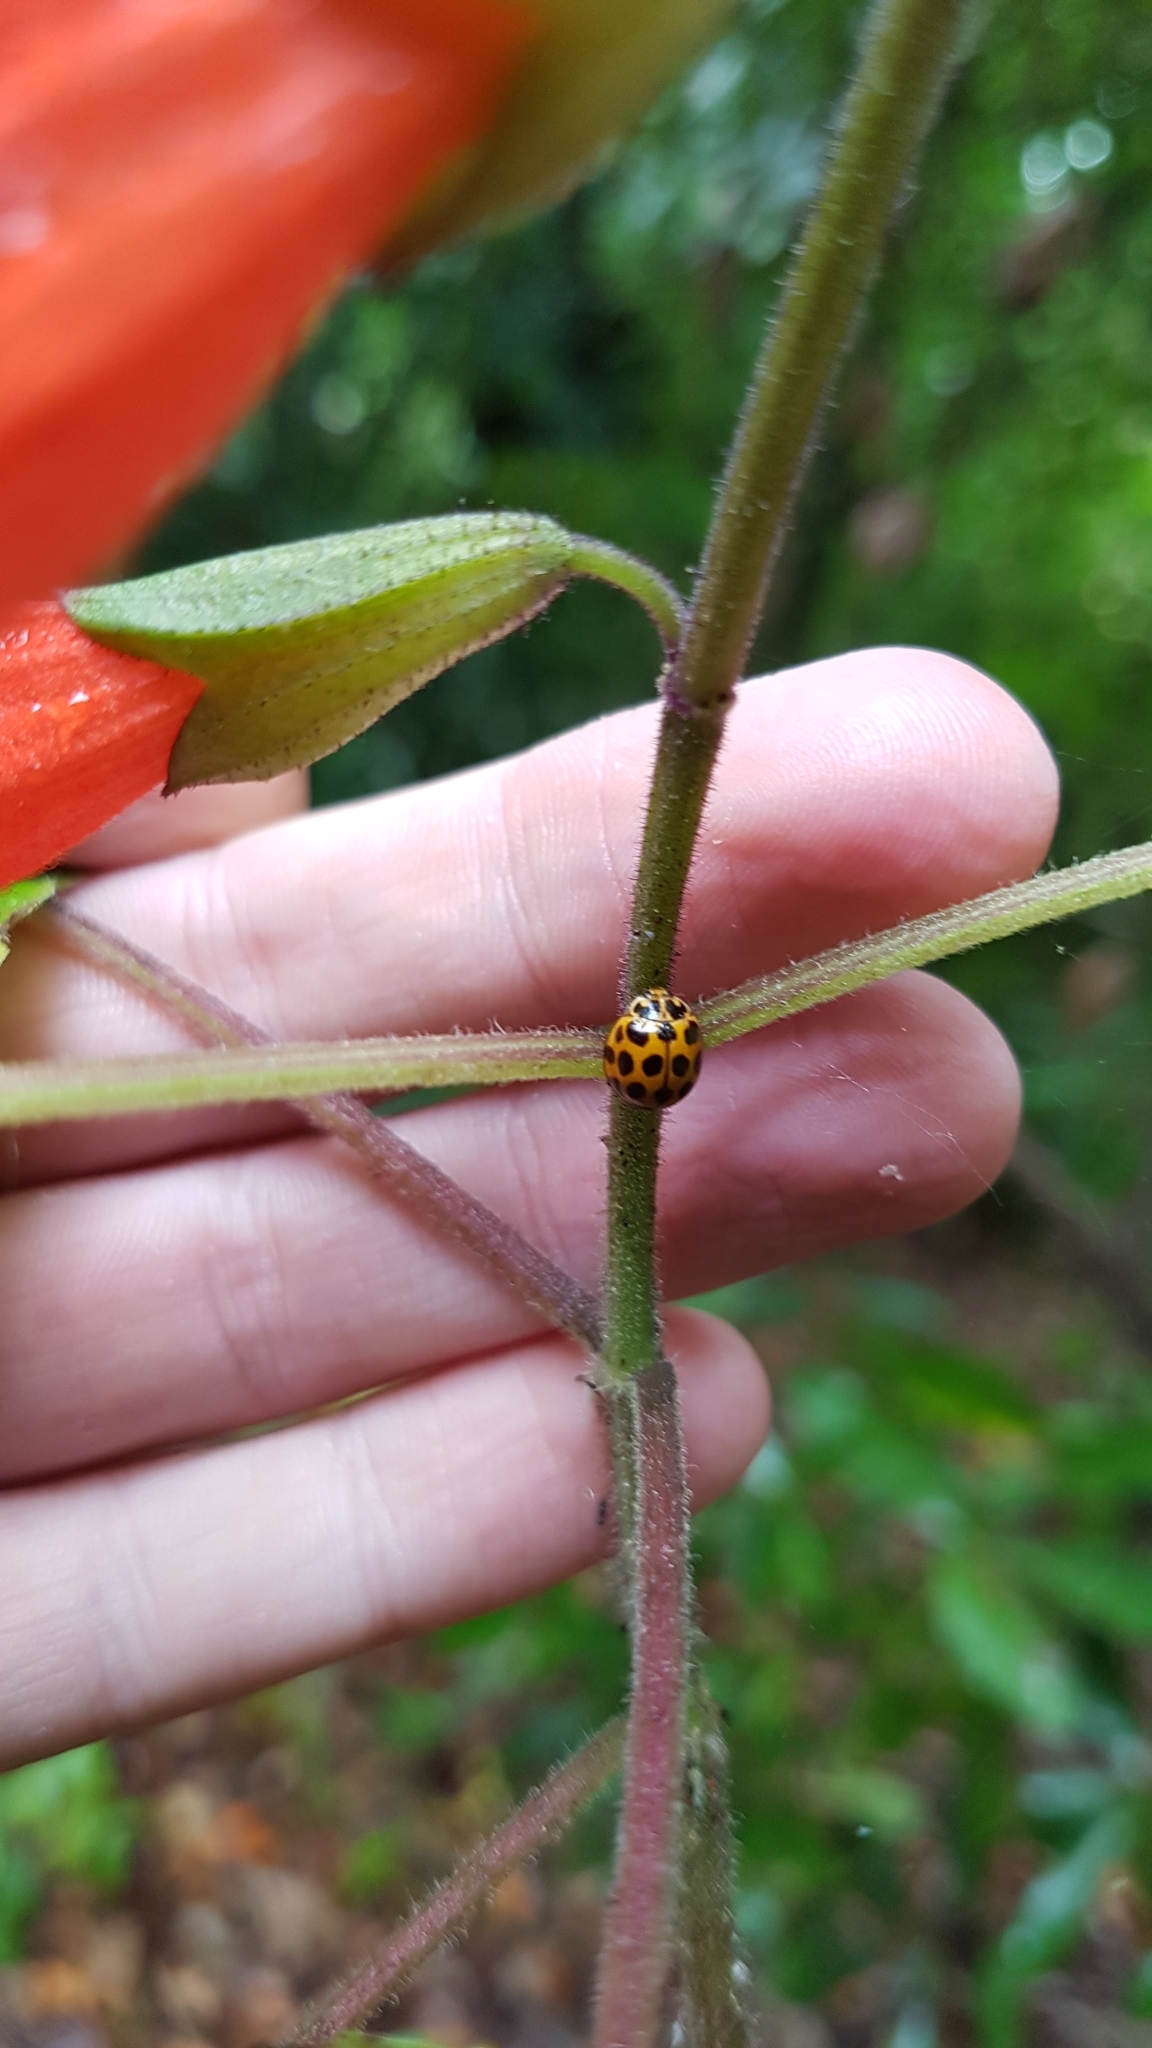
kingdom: Animalia
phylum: Arthropoda
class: Insecta
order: Coleoptera
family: Coccinellidae
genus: Harmonia
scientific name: Harmonia conformis
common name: Common spotted ladybird beetle
